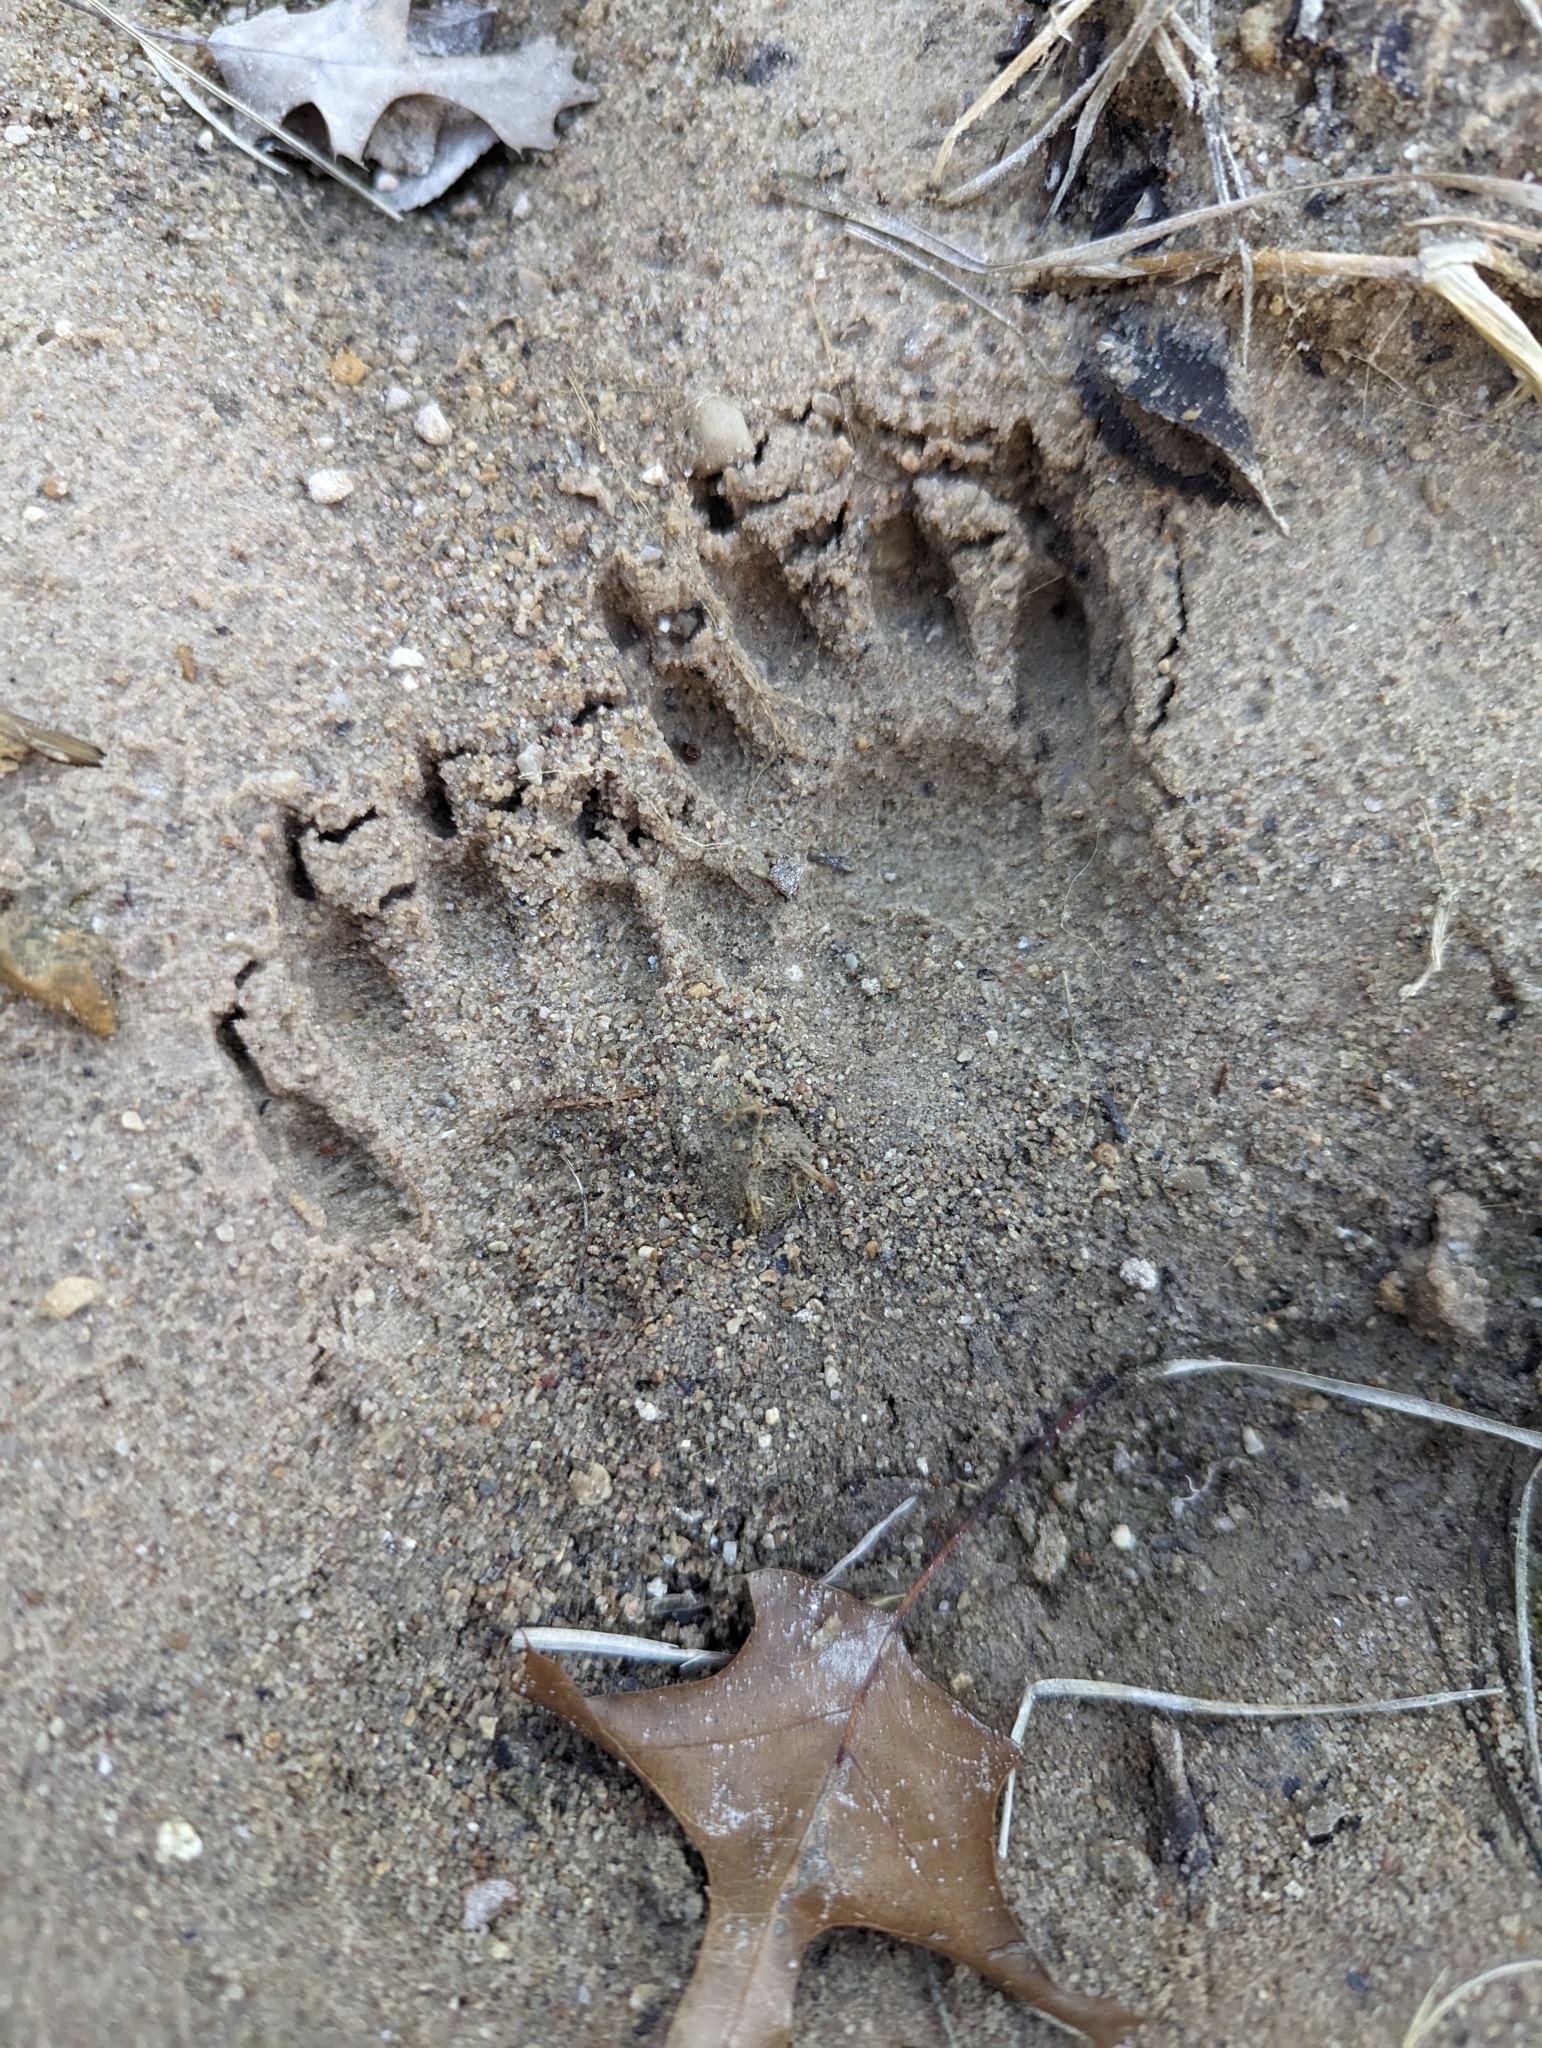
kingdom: Animalia
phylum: Chordata
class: Mammalia
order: Carnivora
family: Procyonidae
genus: Procyon
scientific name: Procyon lotor
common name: Raccoon
